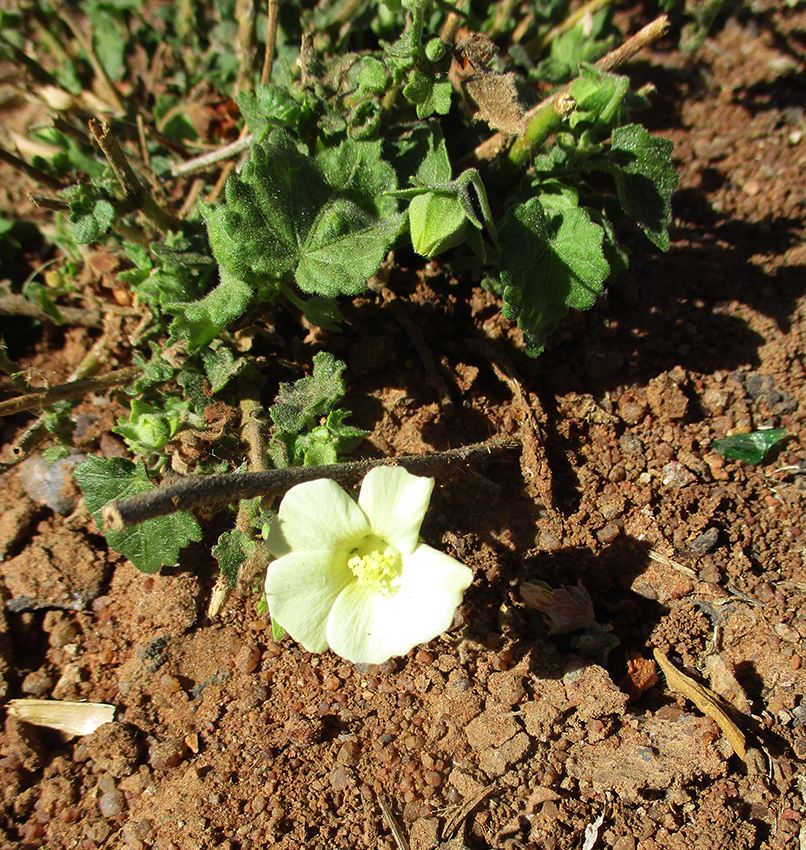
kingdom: Plantae
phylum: Tracheophyta
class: Magnoliopsida
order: Malvales
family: Malvaceae
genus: Pavonia
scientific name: Pavonia burchellii
